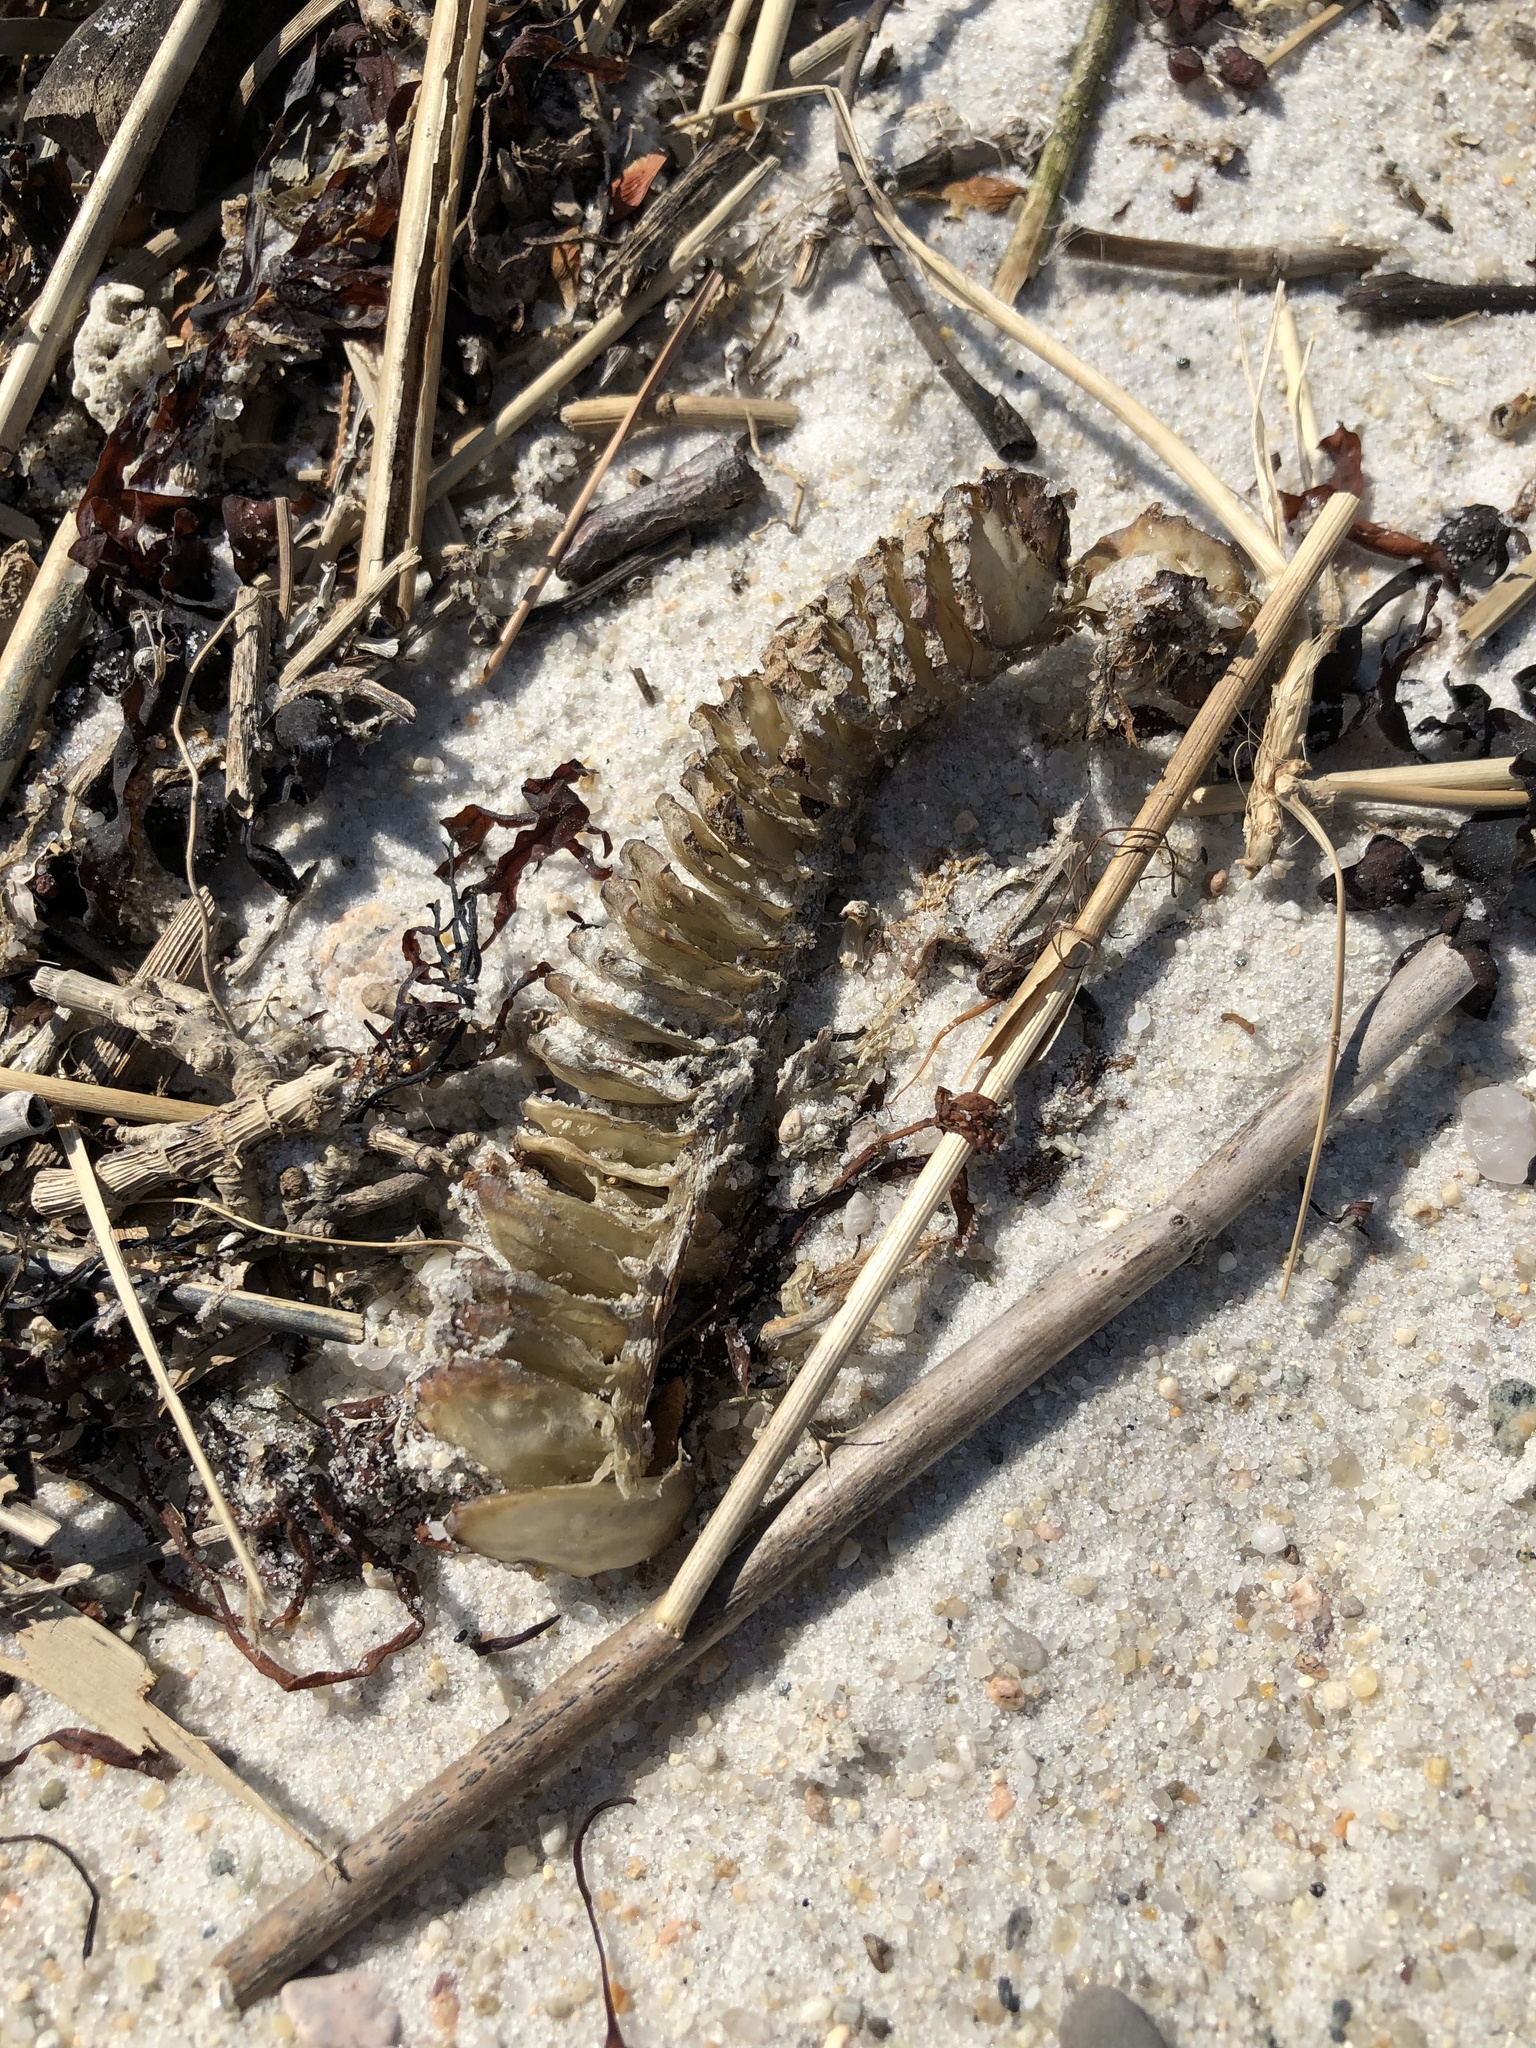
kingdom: Animalia
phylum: Mollusca
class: Gastropoda
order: Neogastropoda
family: Busyconidae
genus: Busycon
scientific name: Busycon carica
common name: Knobbed whelk
